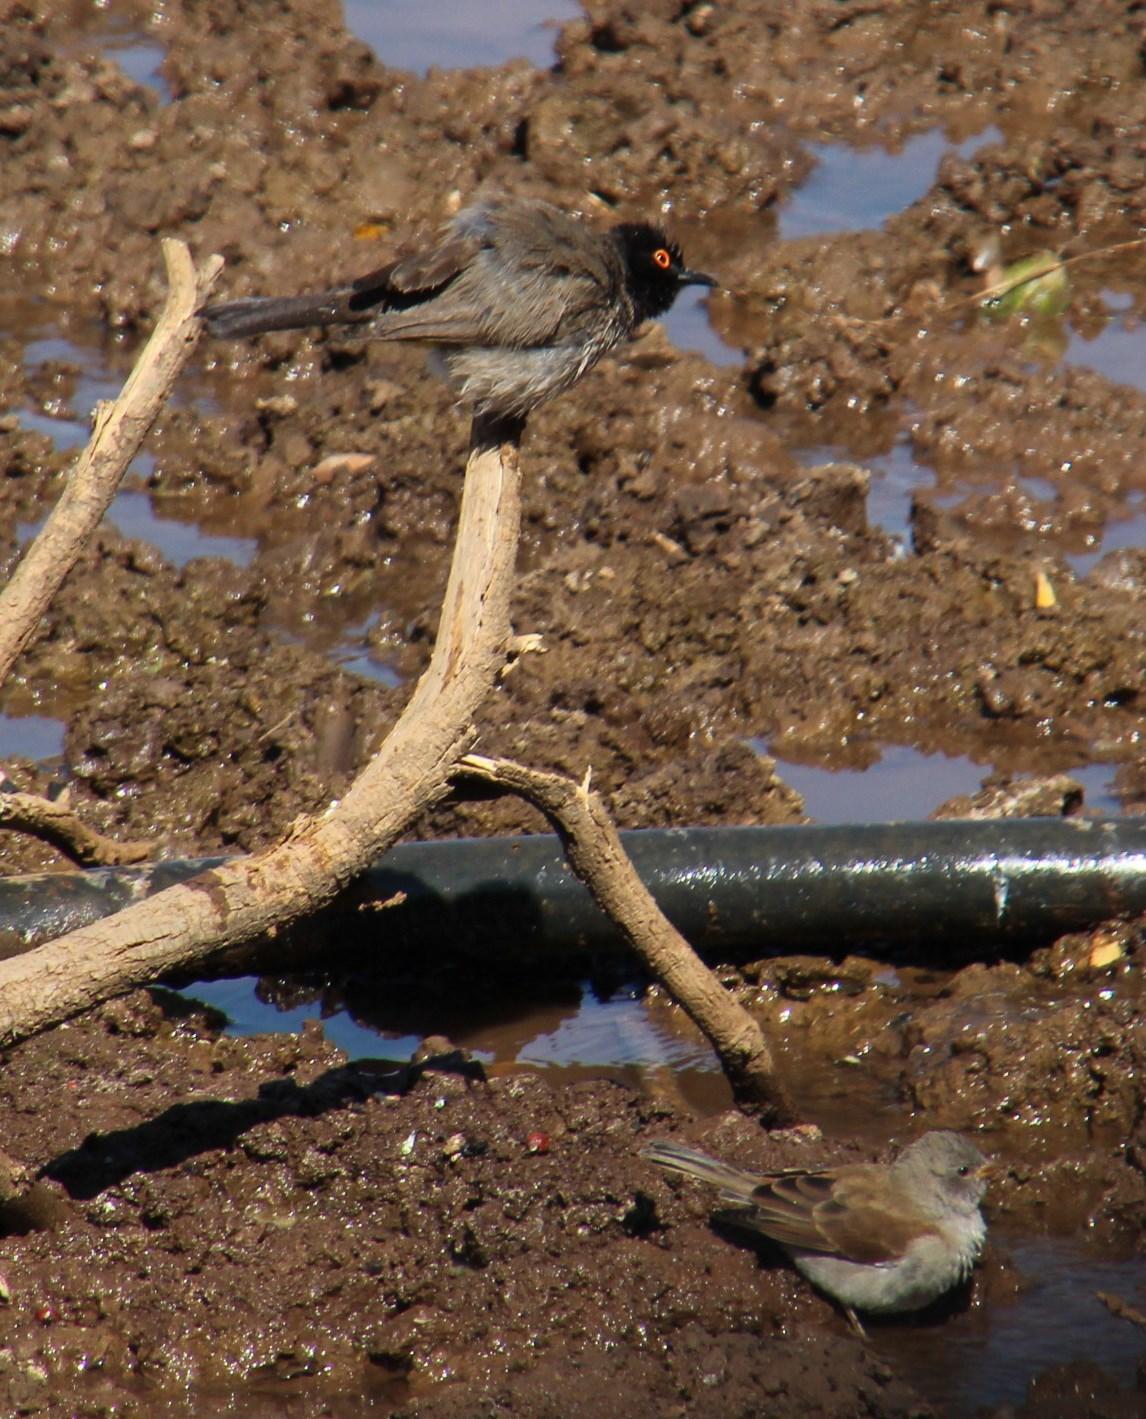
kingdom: Animalia
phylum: Chordata
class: Aves
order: Passeriformes
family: Pycnonotidae
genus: Pycnonotus
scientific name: Pycnonotus nigricans
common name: African red-eyed bulbul
